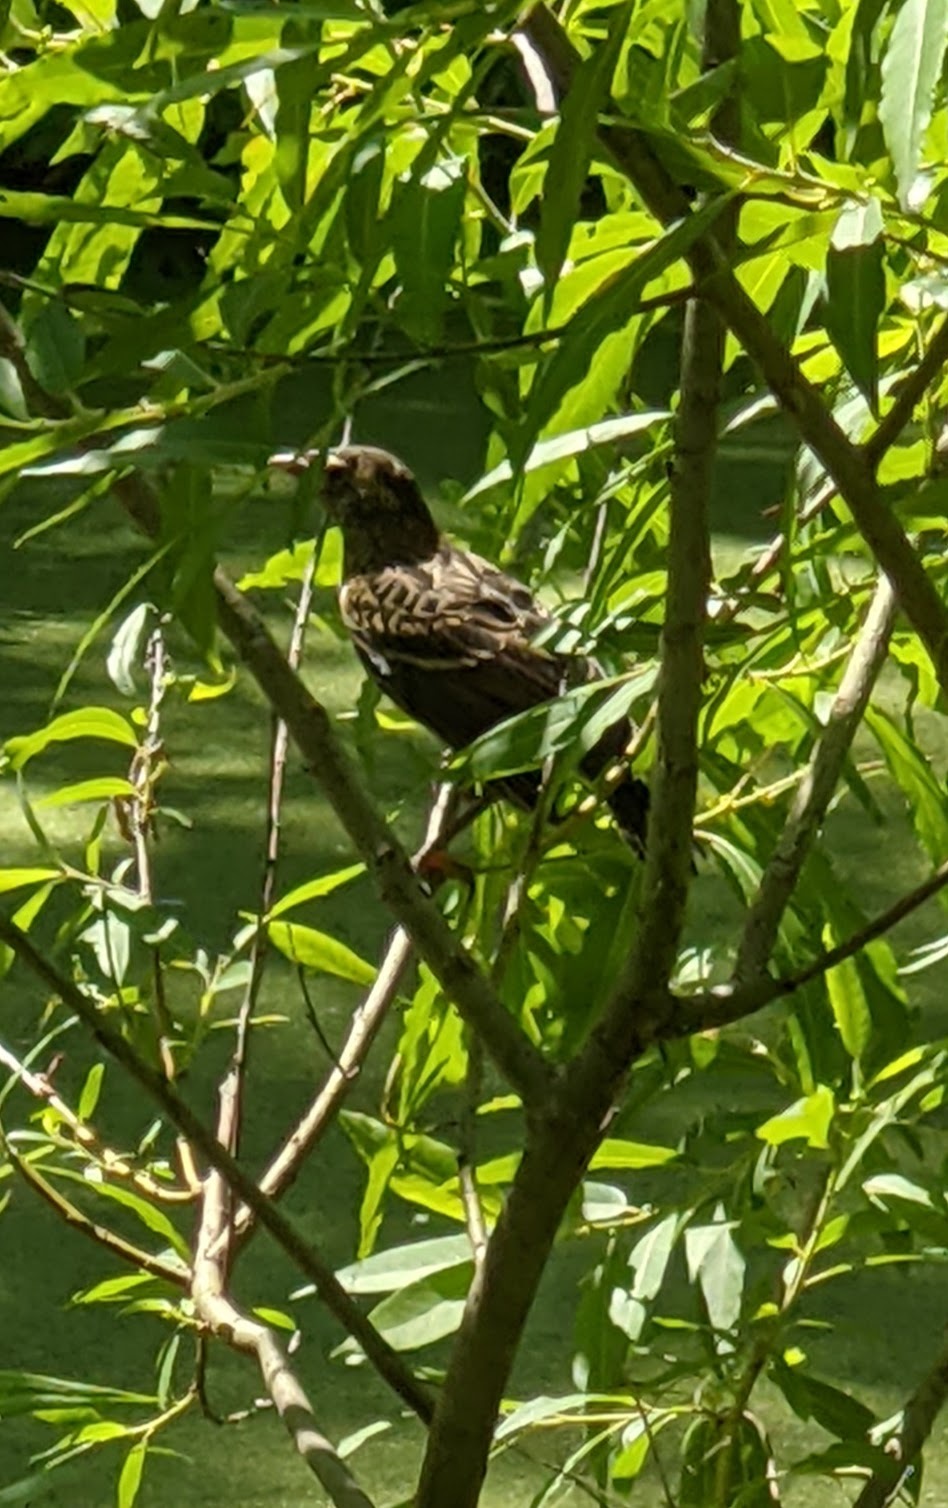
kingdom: Animalia
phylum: Chordata
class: Aves
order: Passeriformes
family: Icteridae
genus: Agelaius
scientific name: Agelaius phoeniceus
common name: Red-winged blackbird
